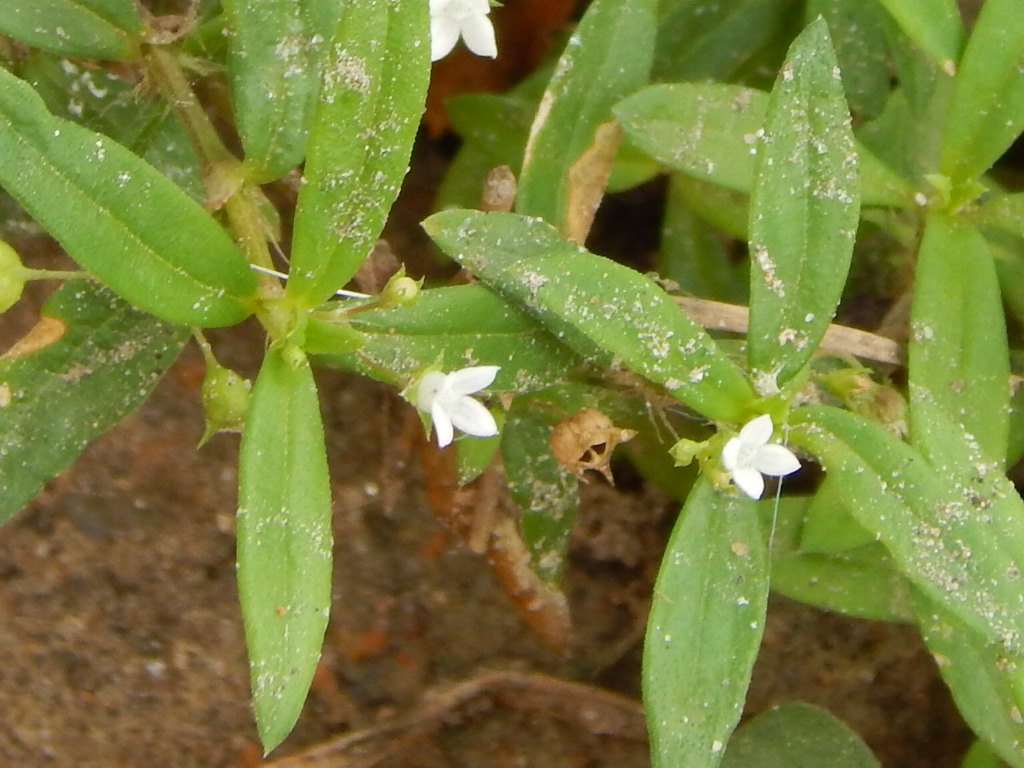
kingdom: Plantae
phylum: Tracheophyta
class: Magnoliopsida
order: Gentianales
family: Rubiaceae
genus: Oldenlandia
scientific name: Oldenlandia corymbosa
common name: Flat-top mille graines
